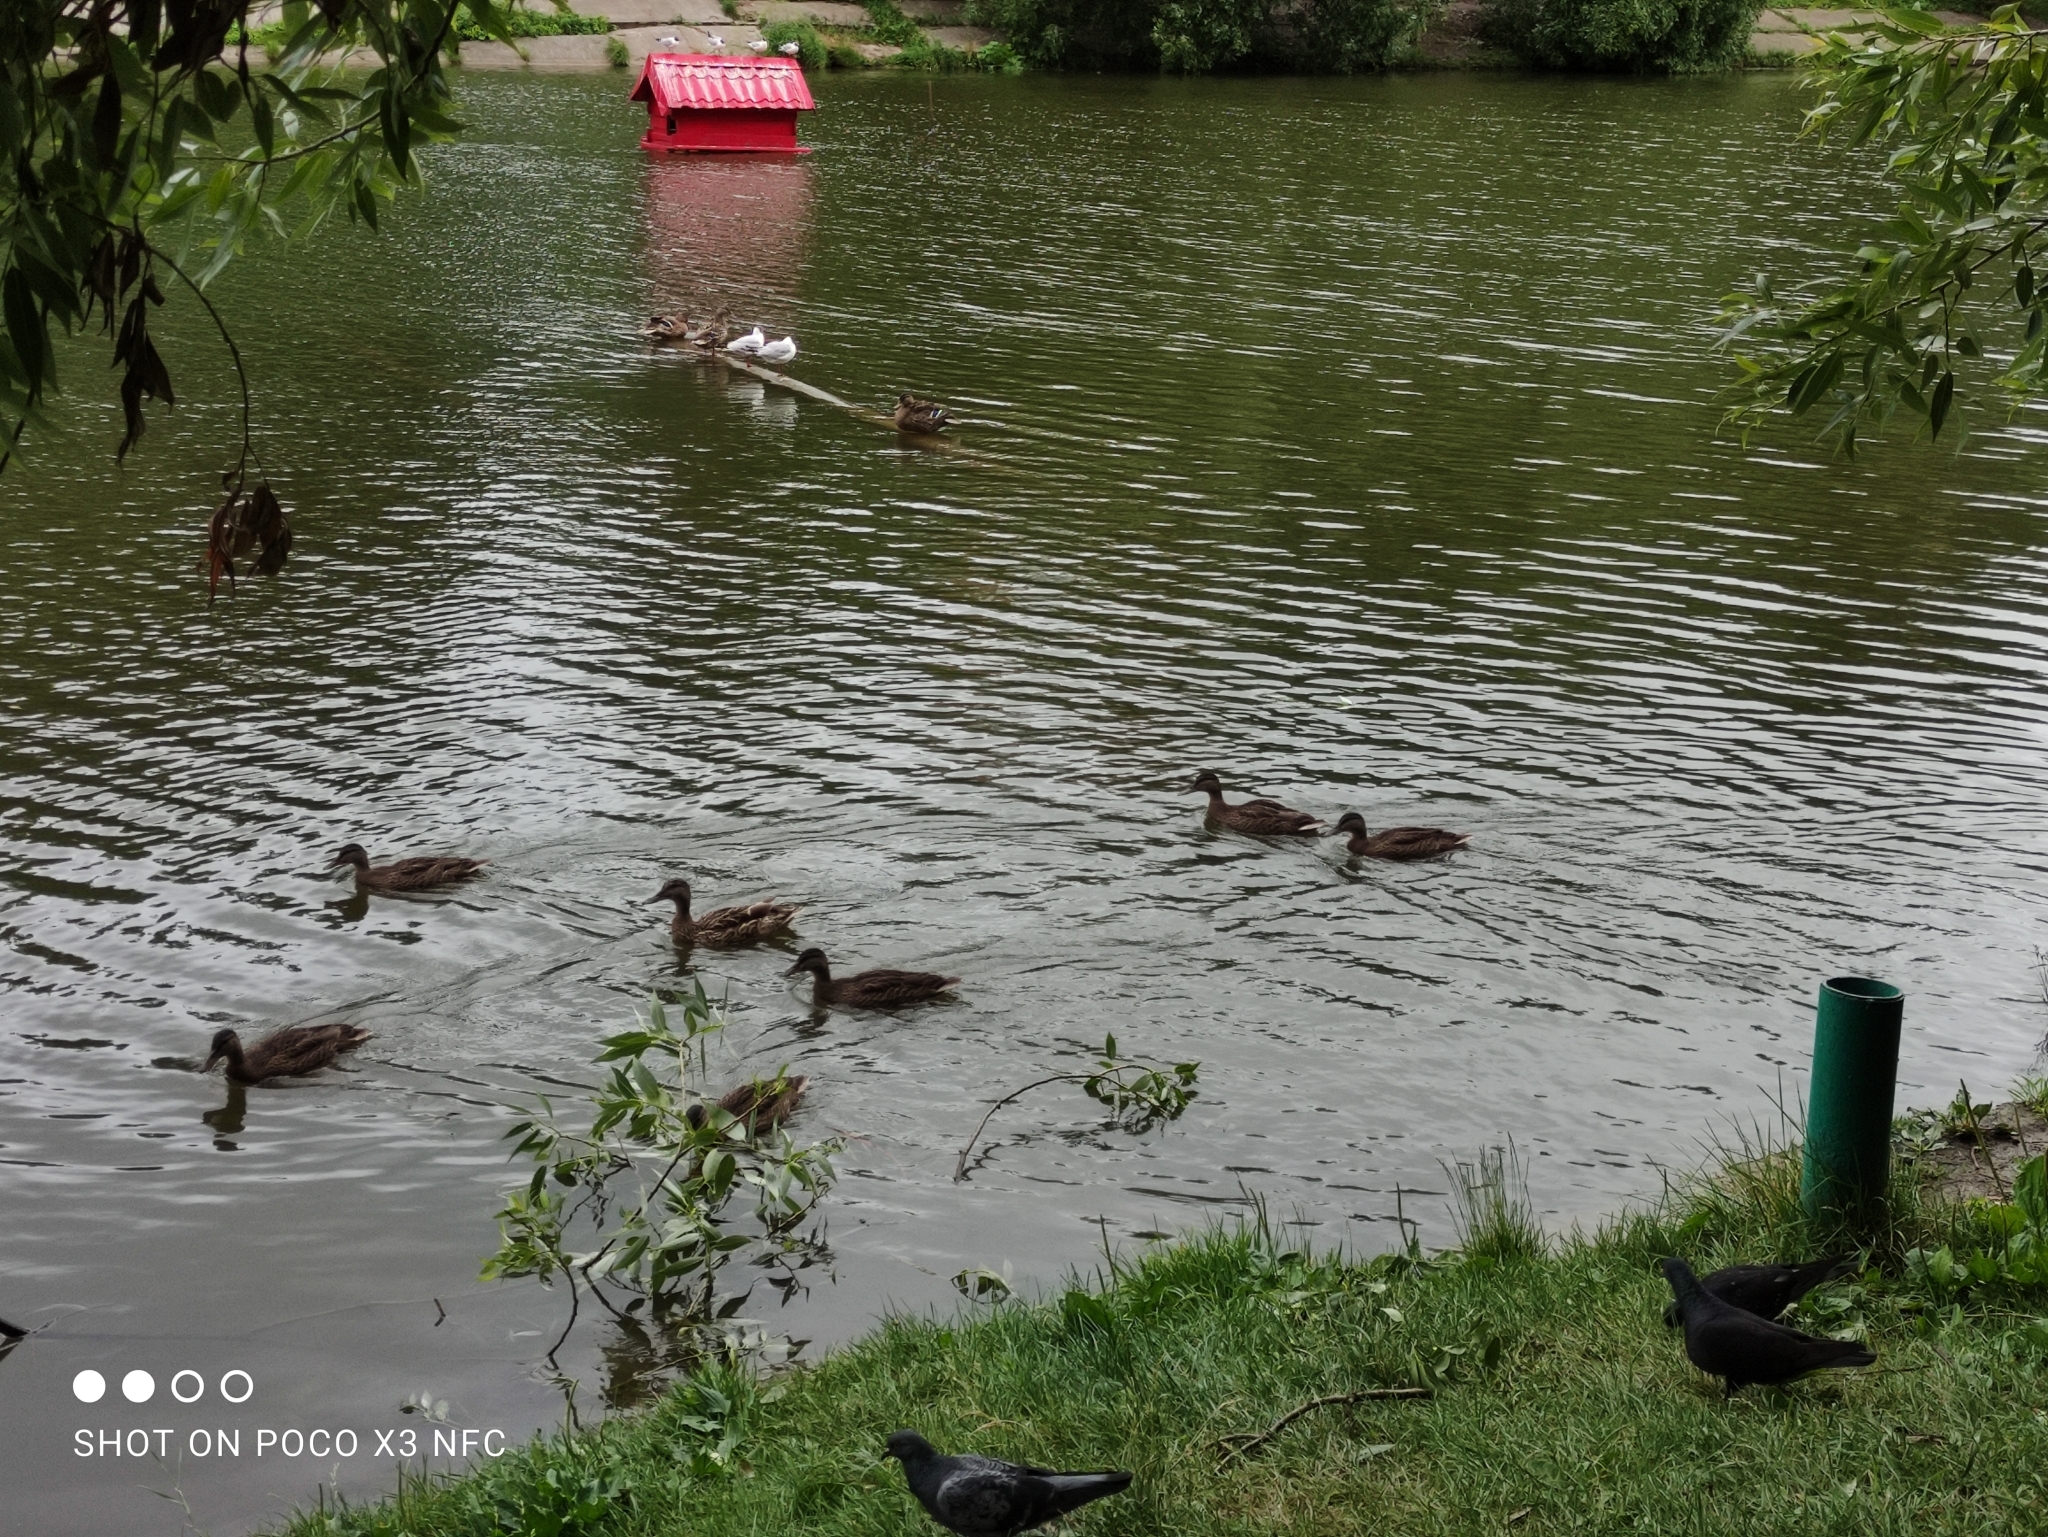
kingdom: Animalia
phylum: Chordata
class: Aves
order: Anseriformes
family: Anatidae
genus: Anas
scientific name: Anas platyrhynchos
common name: Mallard
